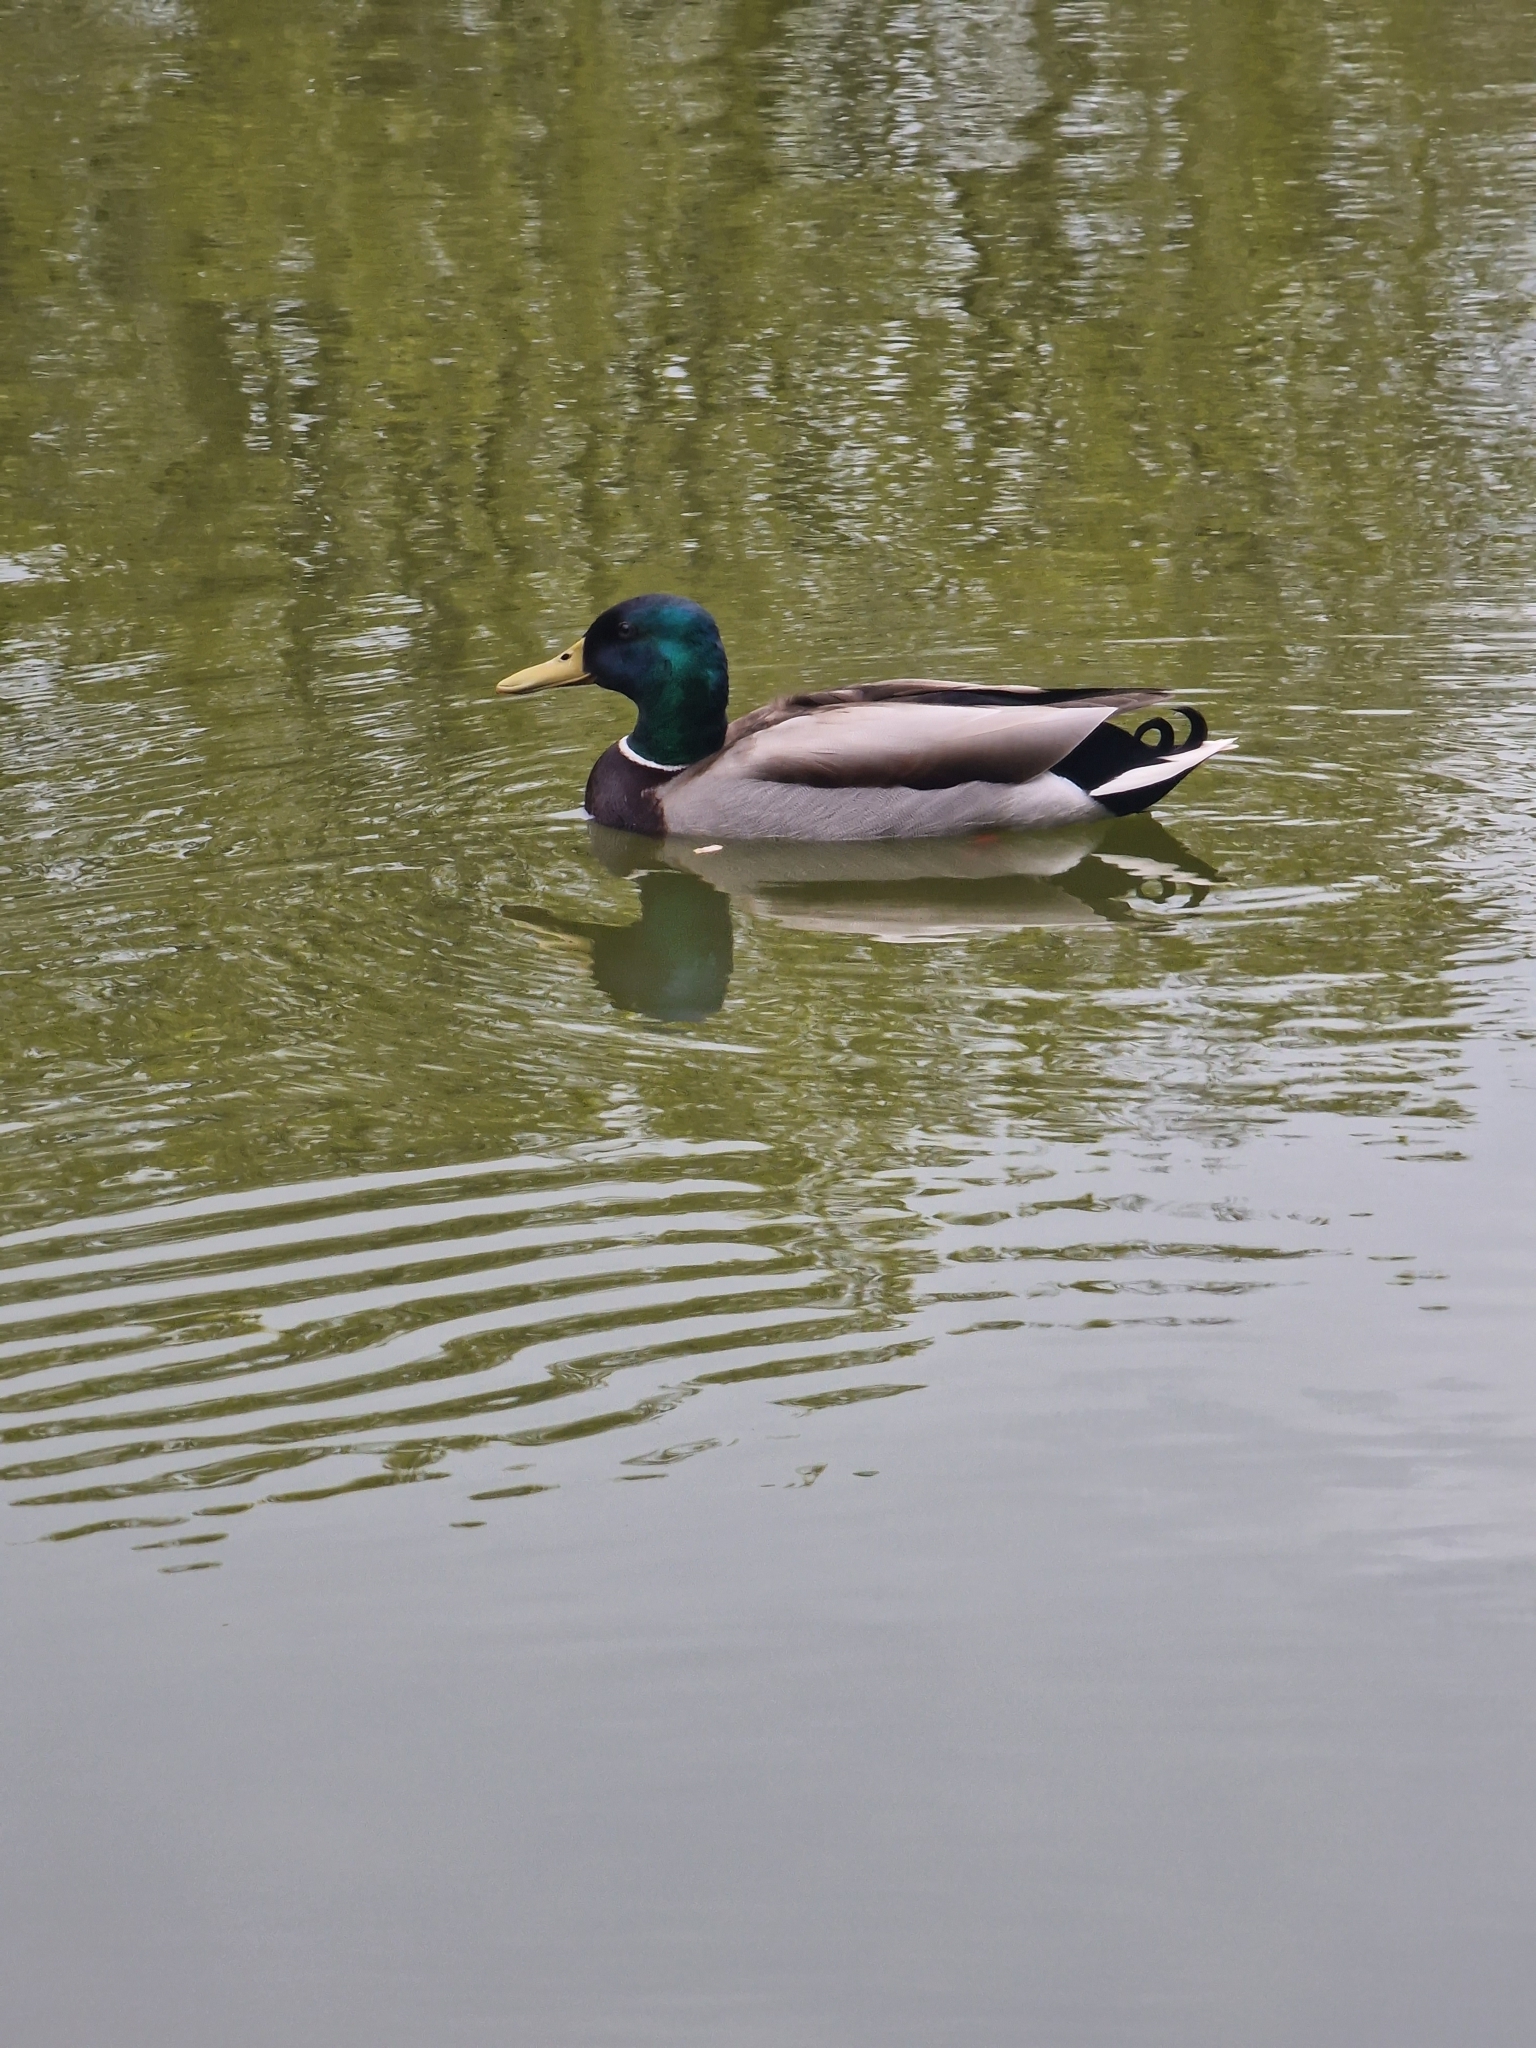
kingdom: Animalia
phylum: Chordata
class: Aves
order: Anseriformes
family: Anatidae
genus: Anas
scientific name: Anas platyrhynchos
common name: Mallard
